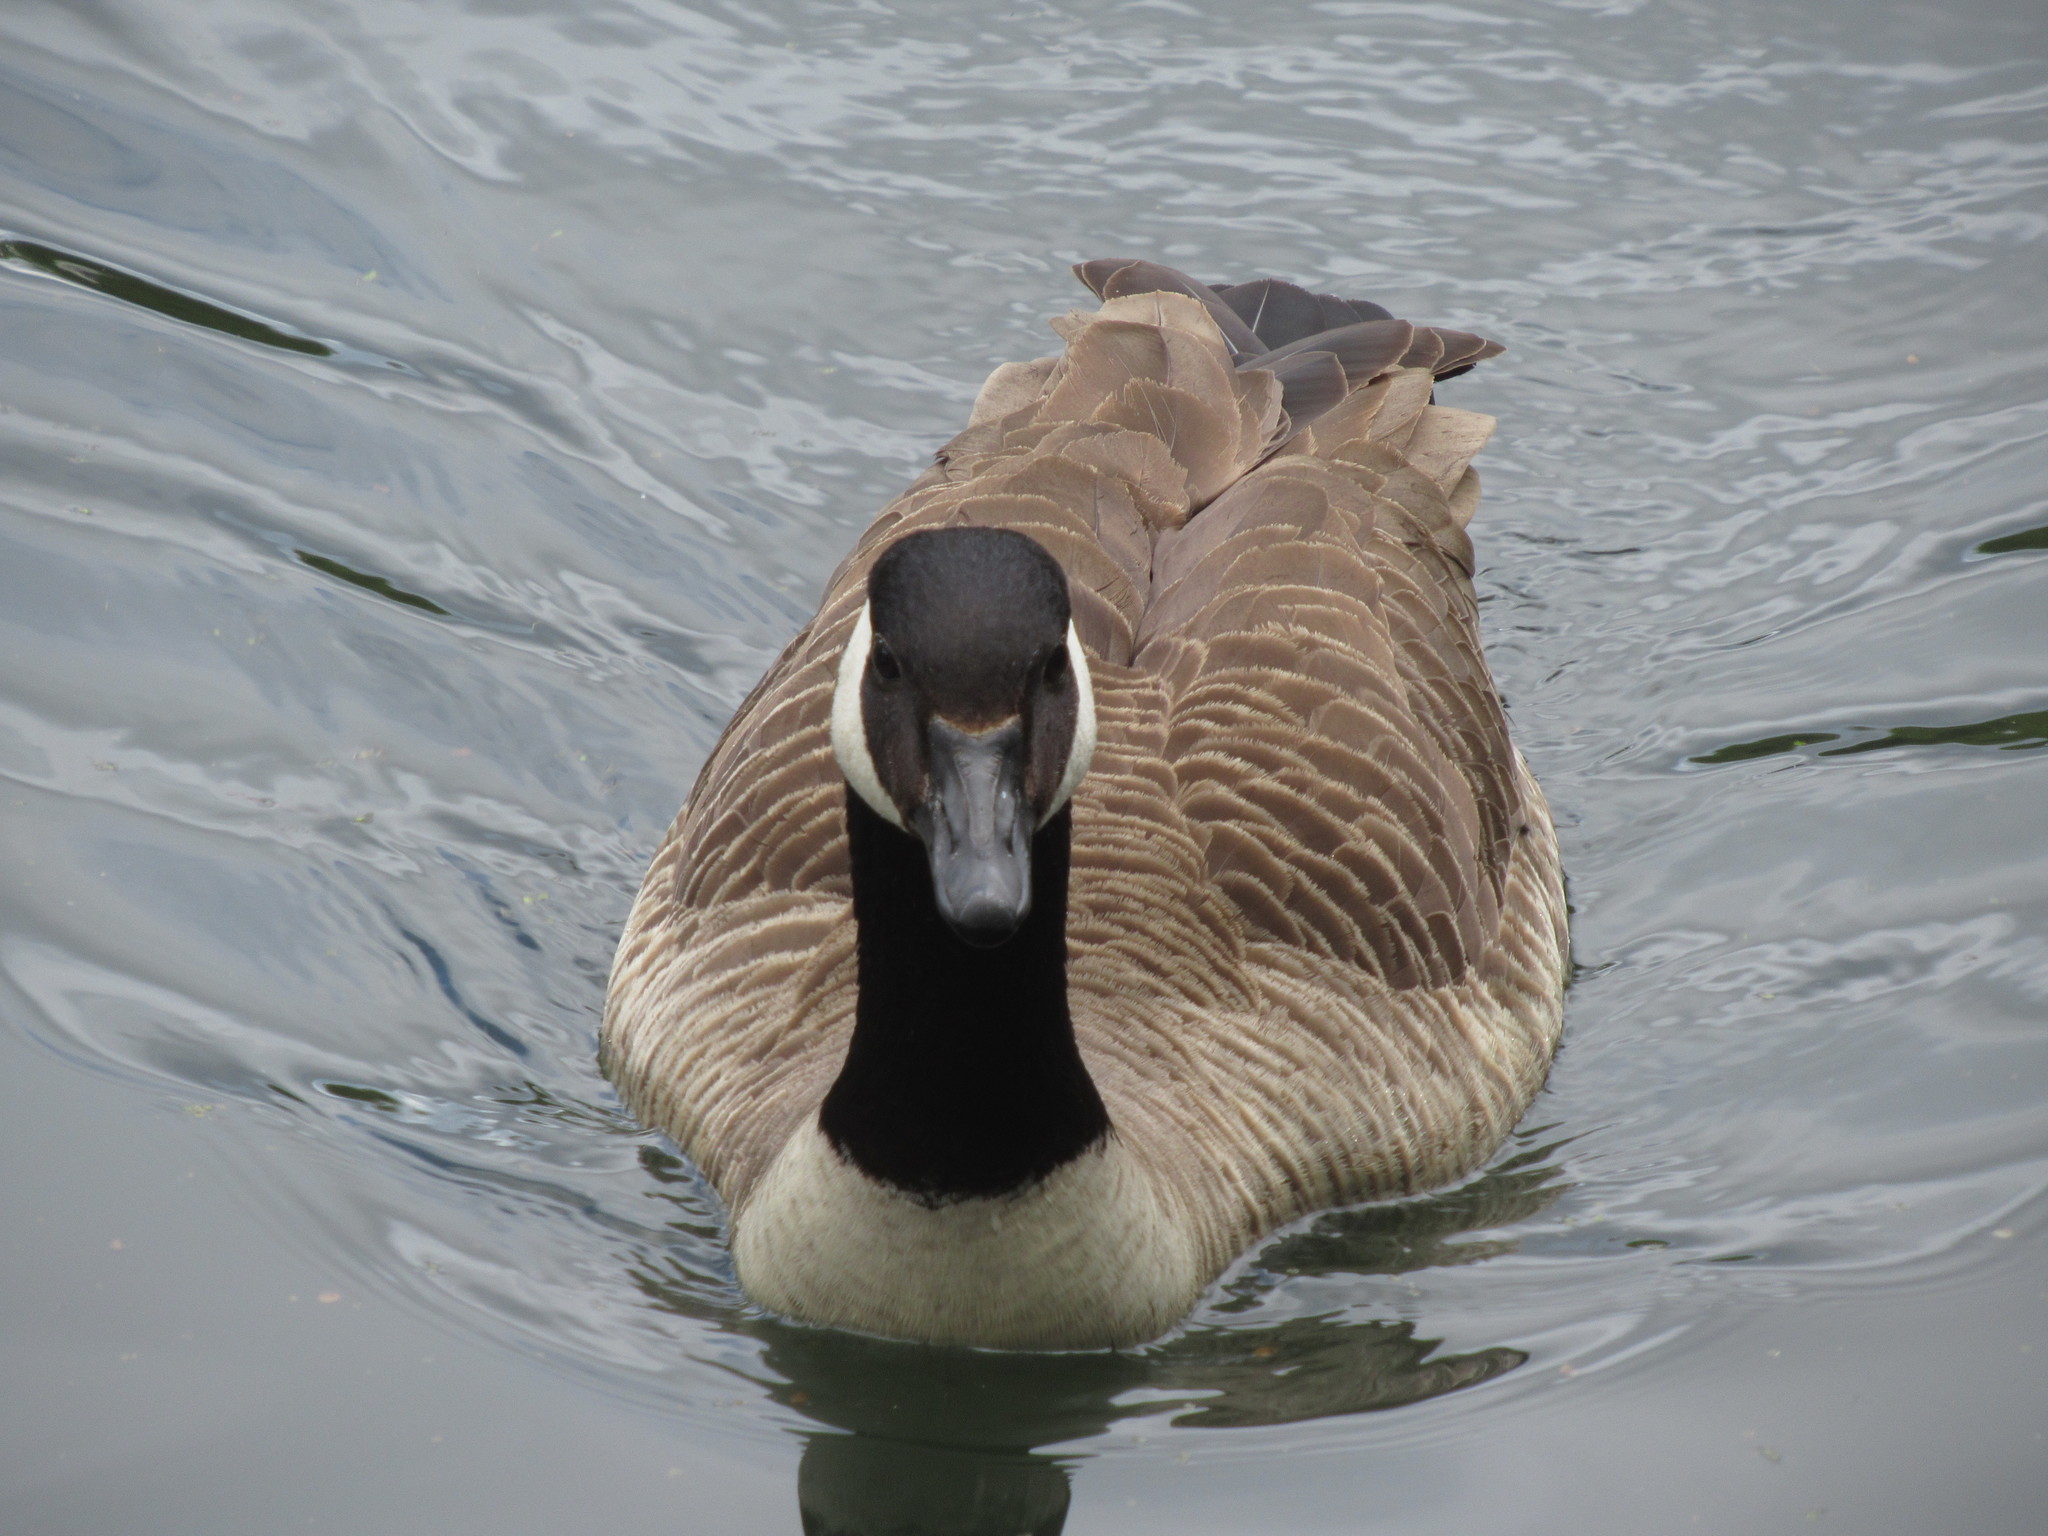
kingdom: Animalia
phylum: Chordata
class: Aves
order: Anseriformes
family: Anatidae
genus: Branta
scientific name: Branta canadensis
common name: Canada goose
